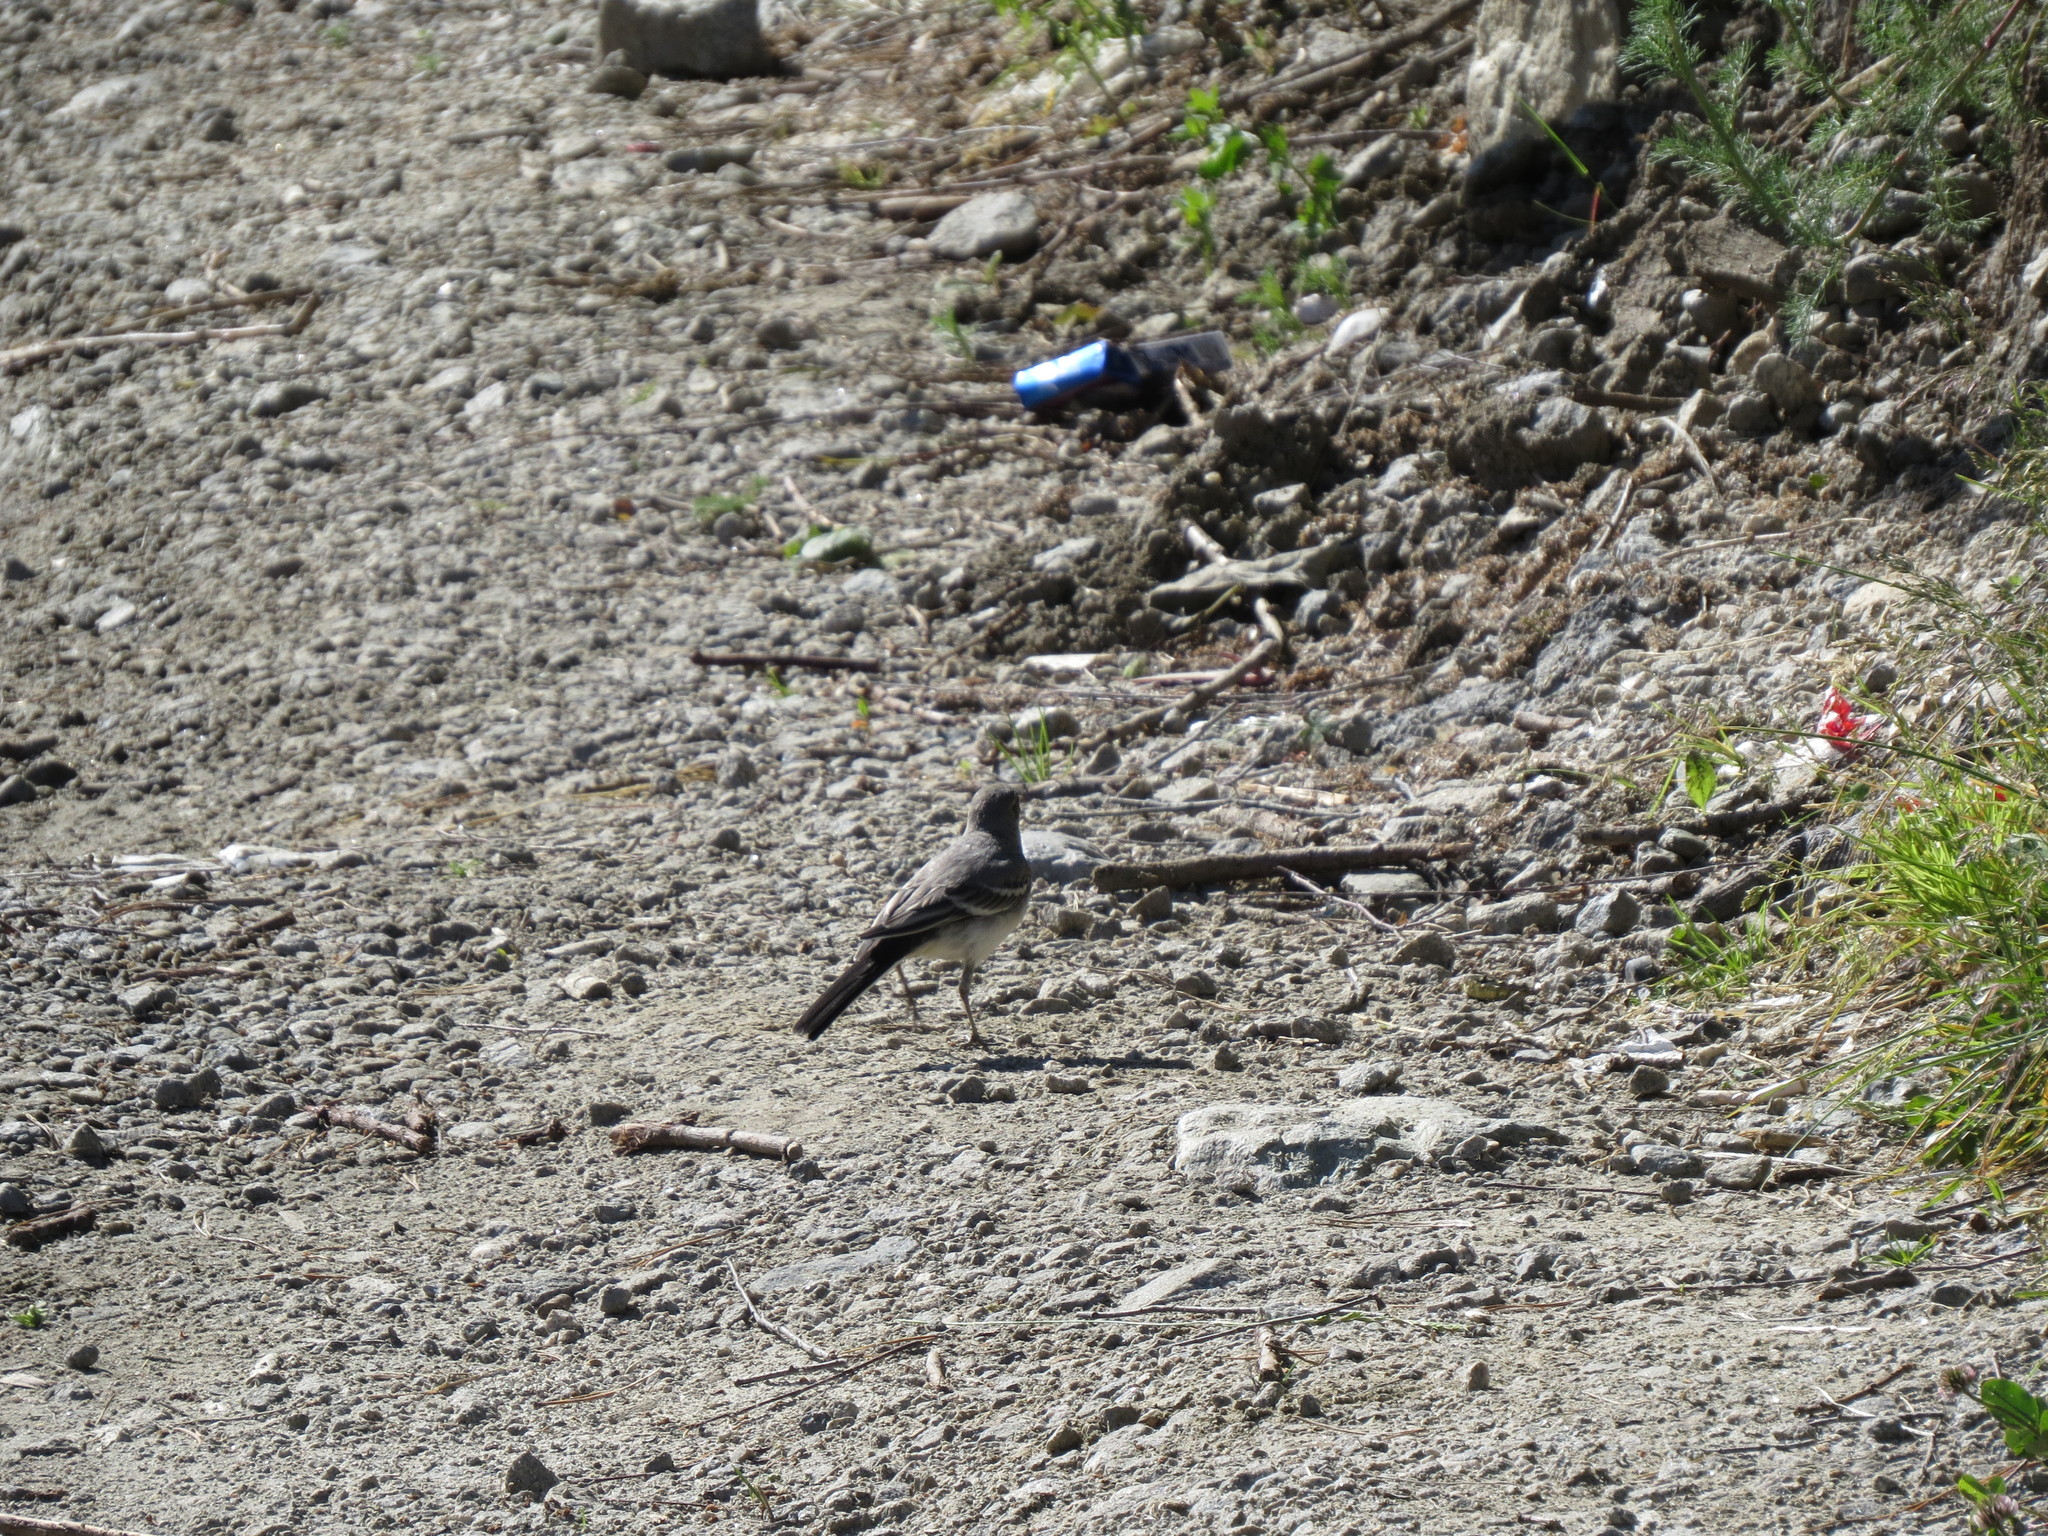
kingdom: Animalia
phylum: Chordata
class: Aves
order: Passeriformes
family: Motacillidae
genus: Motacilla
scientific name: Motacilla alba
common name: White wagtail
